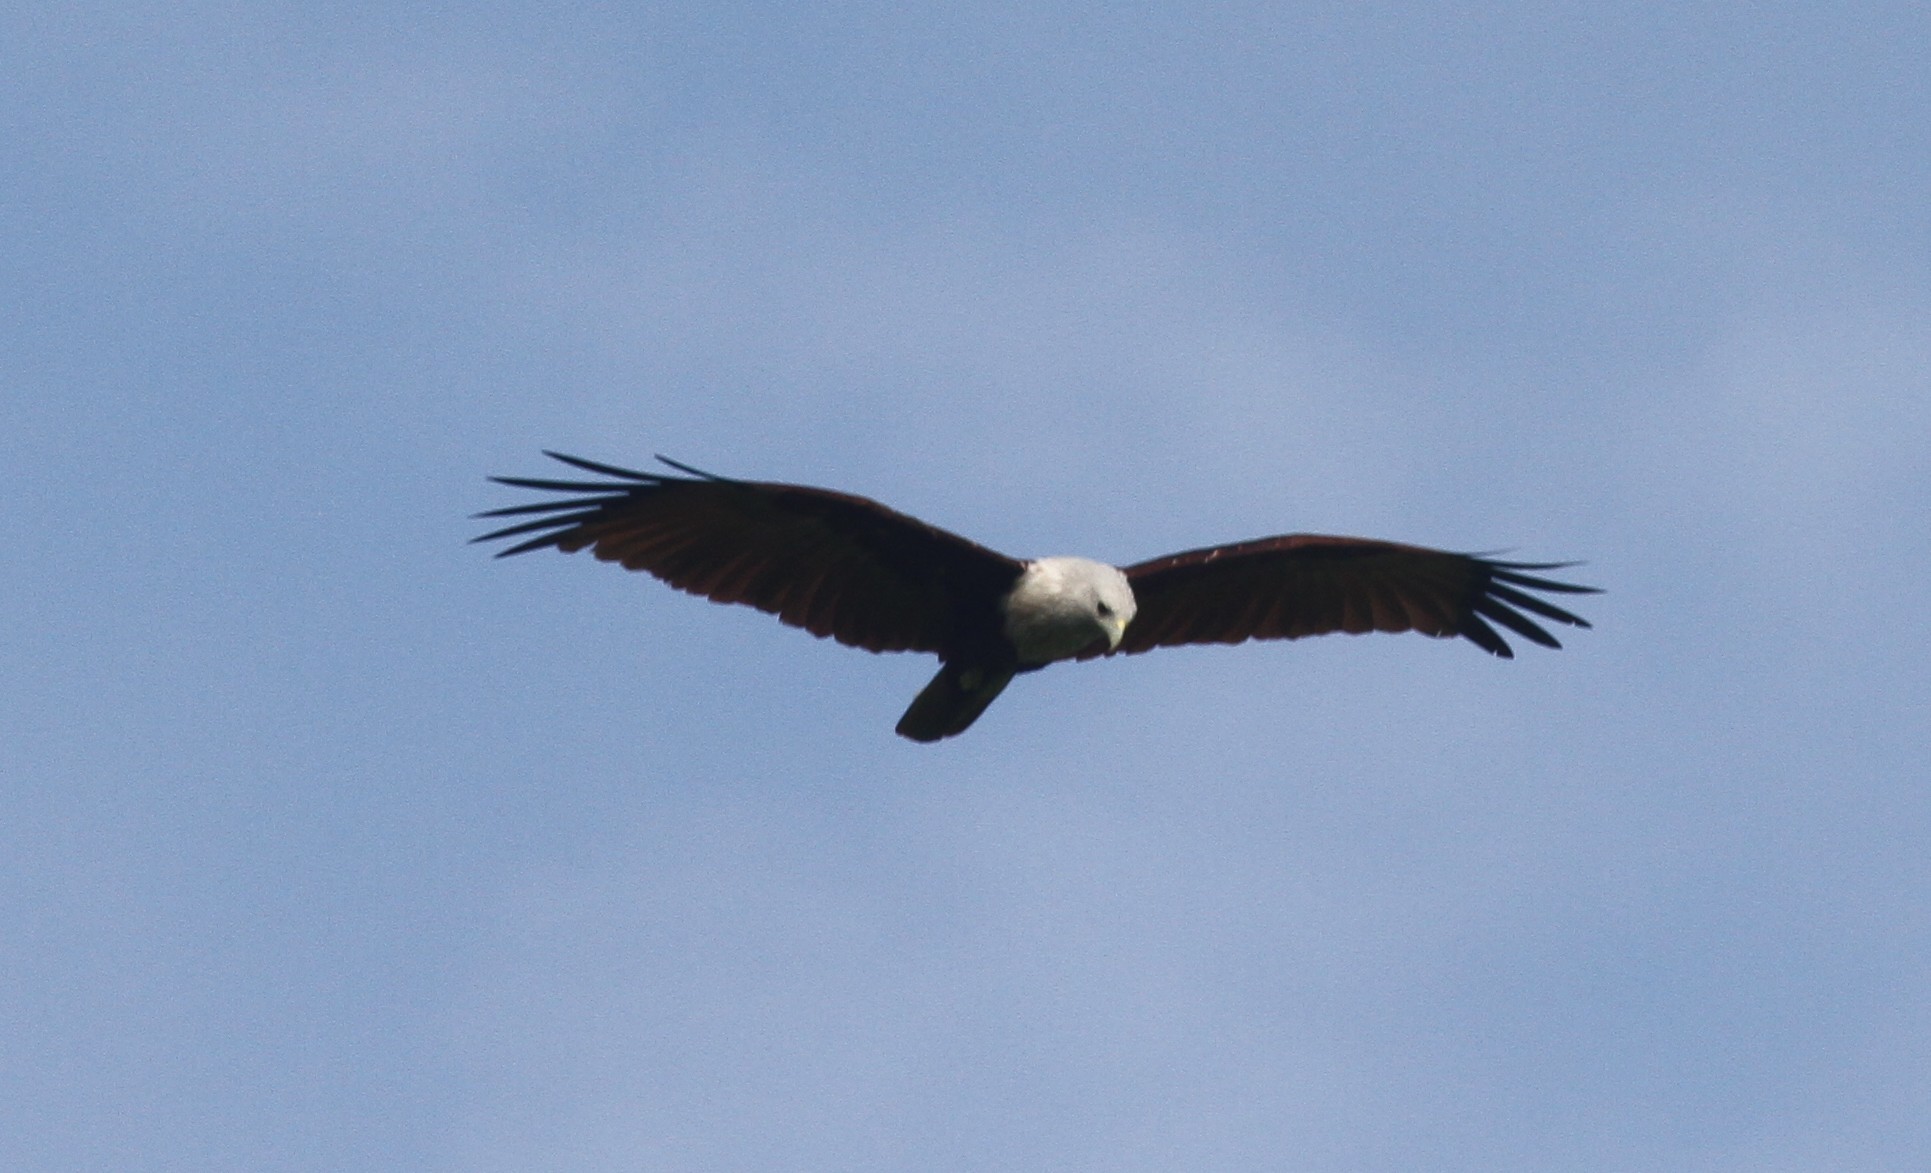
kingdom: Animalia
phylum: Chordata
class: Aves
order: Accipitriformes
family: Accipitridae
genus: Haliastur
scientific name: Haliastur indus
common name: Brahminy kite
